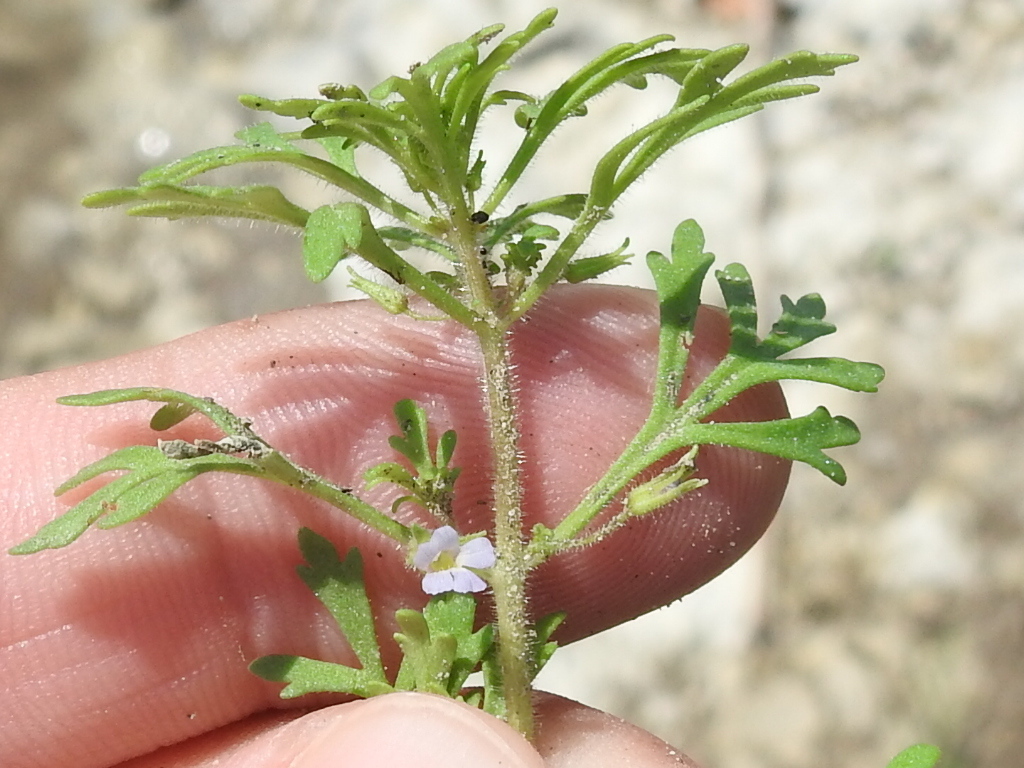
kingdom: Plantae
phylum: Tracheophyta
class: Magnoliopsida
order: Lamiales
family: Plantaginaceae
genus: Leucospora
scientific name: Leucospora multifida
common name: Narrow-leaf paleseed
